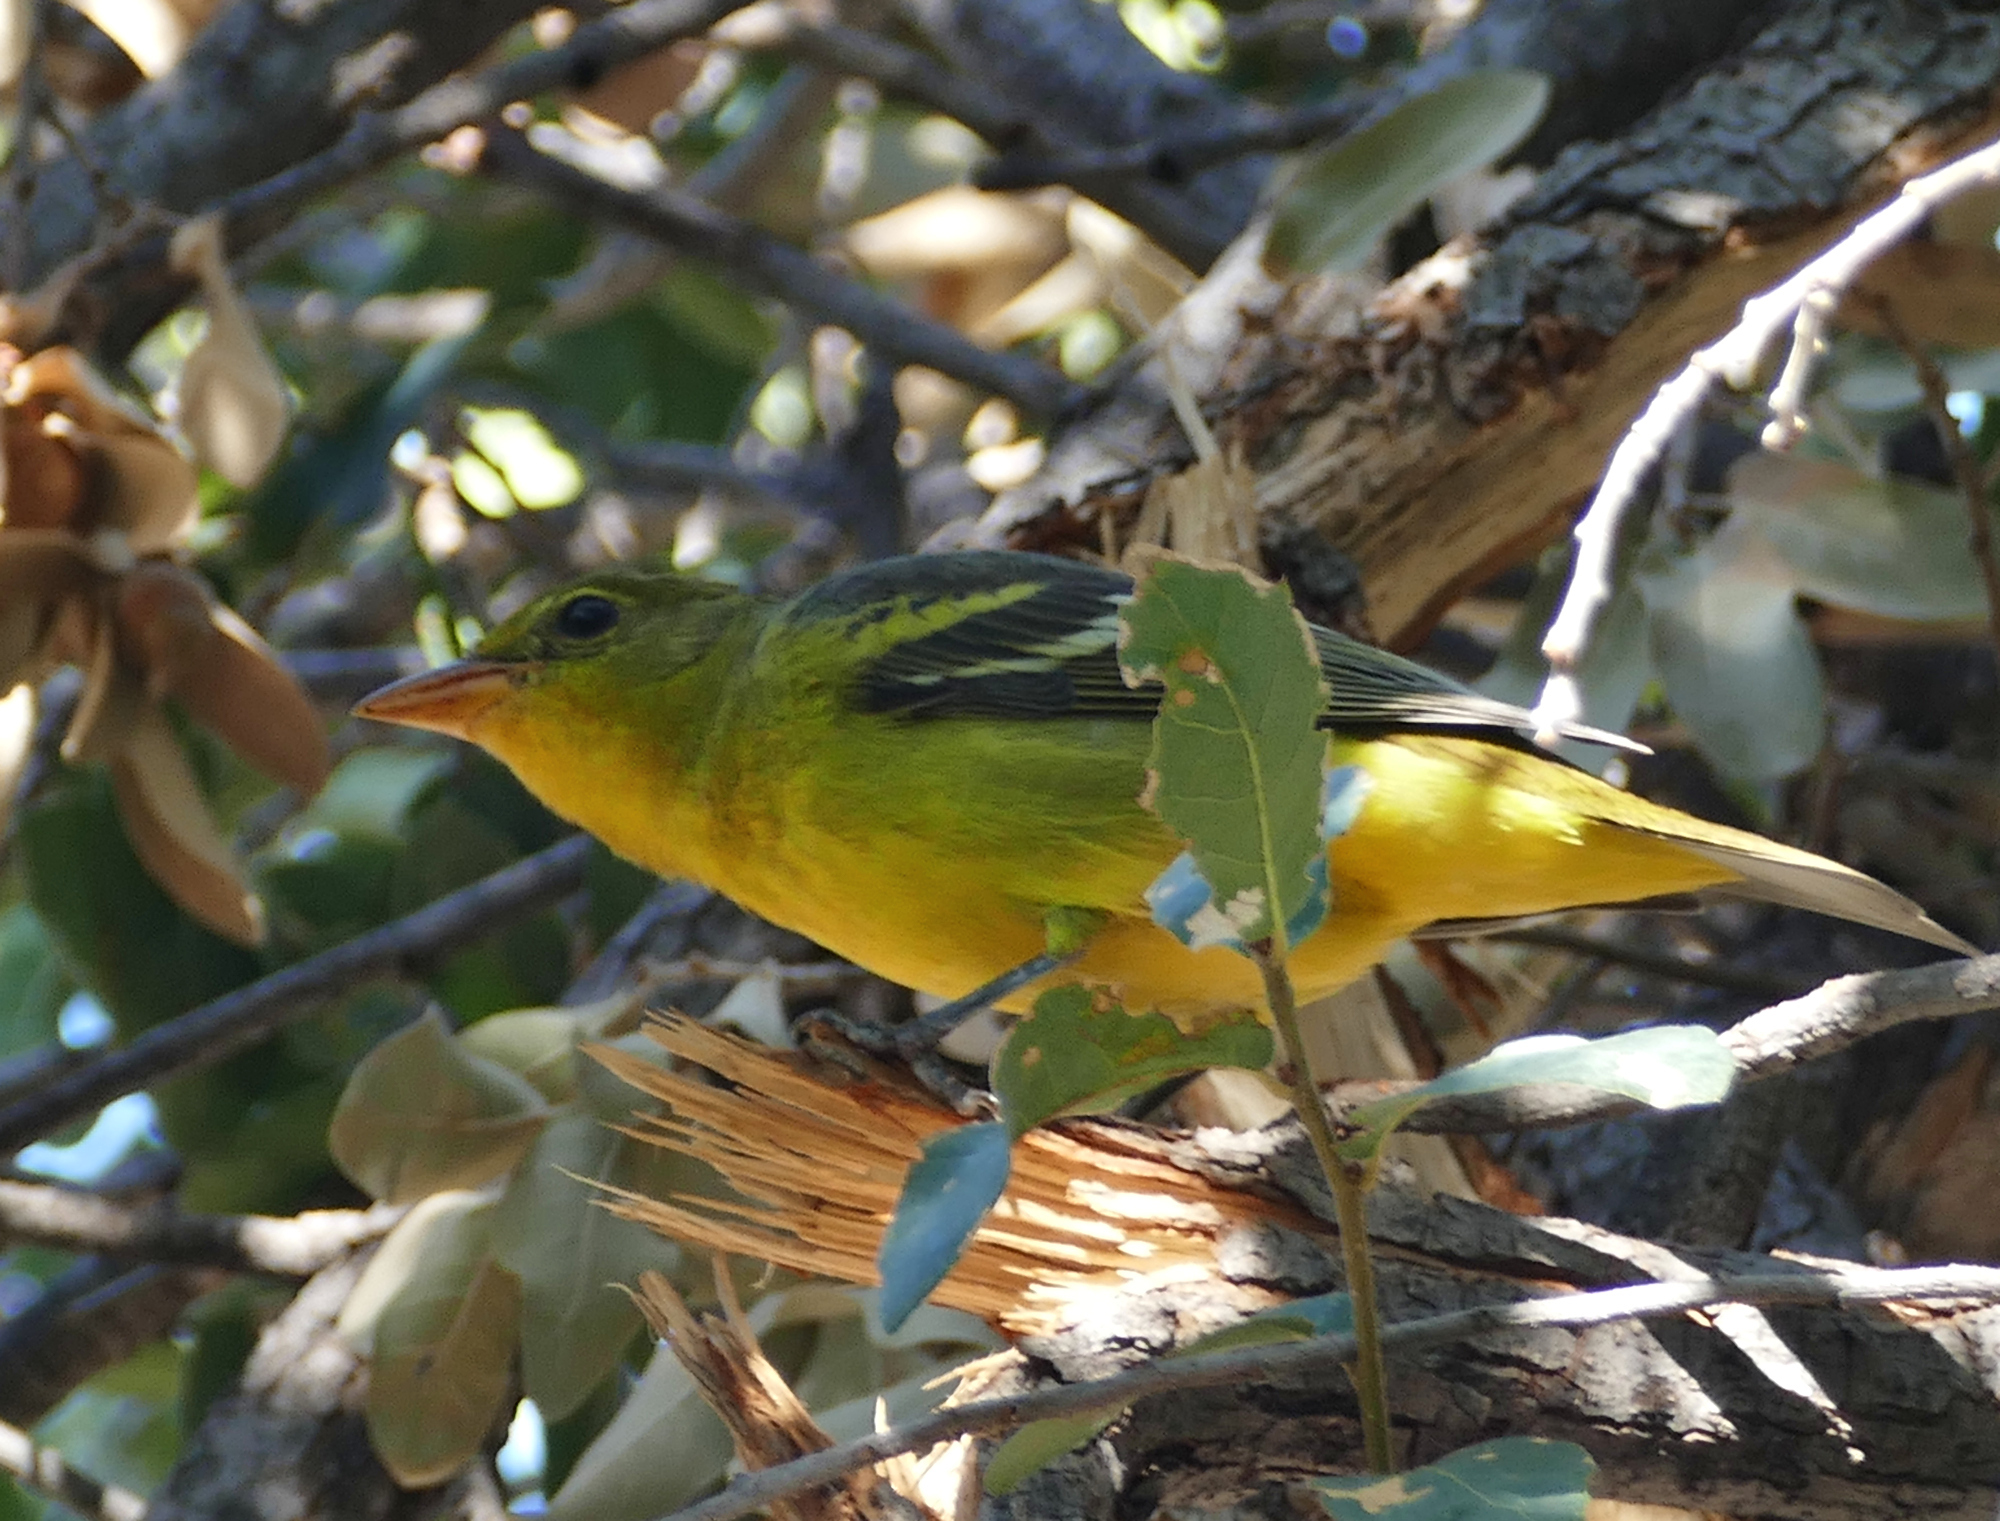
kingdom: Animalia
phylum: Chordata
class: Aves
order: Passeriformes
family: Cardinalidae
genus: Piranga
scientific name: Piranga ludoviciana
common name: Western tanager
